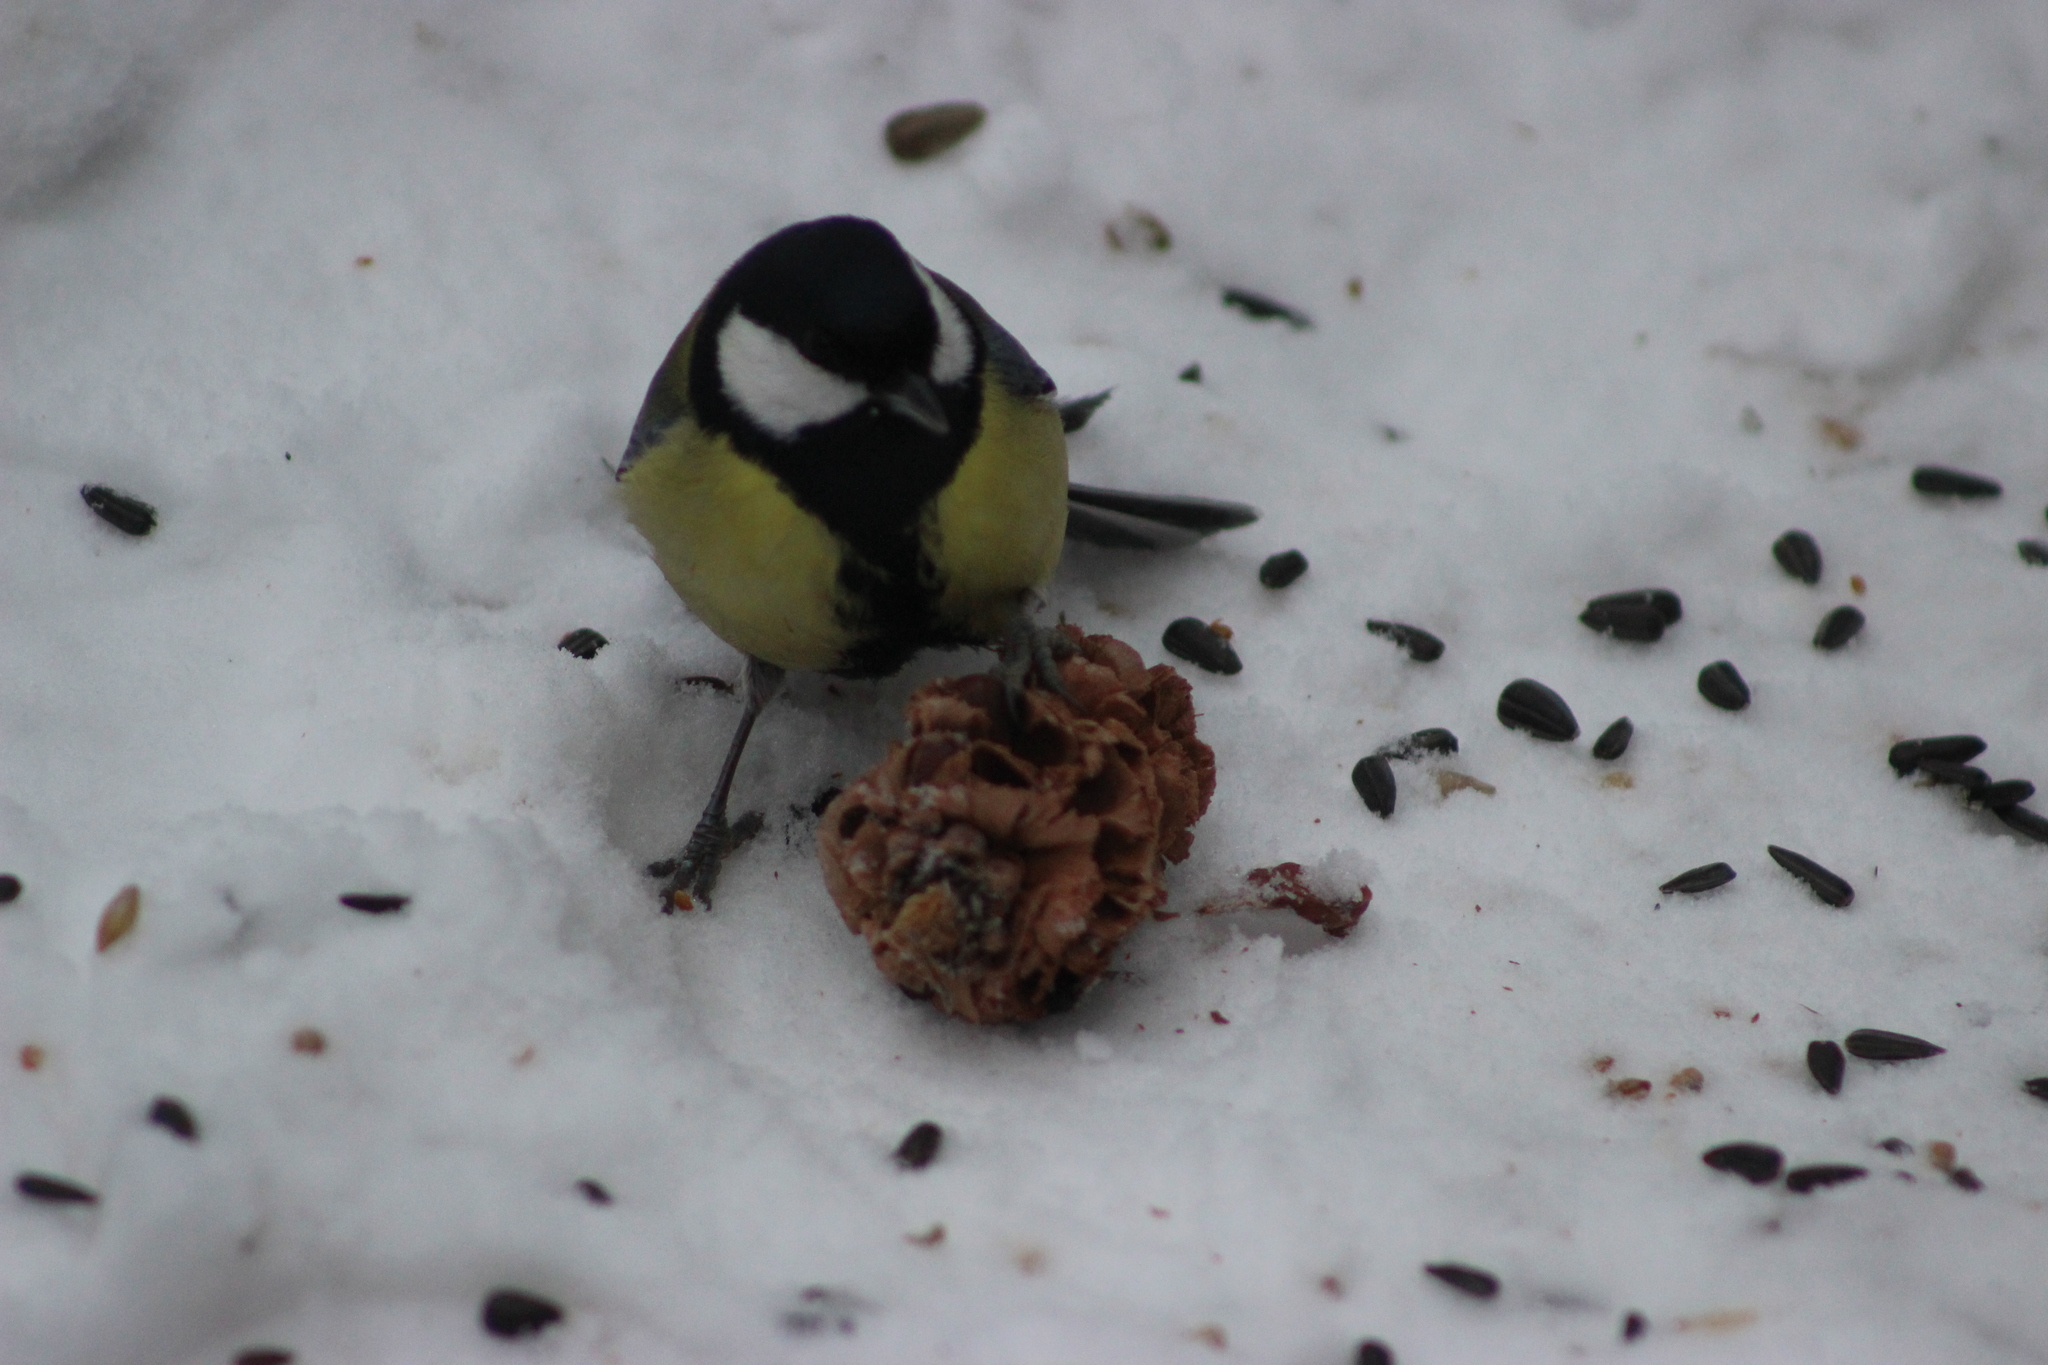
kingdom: Animalia
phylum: Chordata
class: Aves
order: Passeriformes
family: Paridae
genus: Parus
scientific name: Parus major
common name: Great tit
